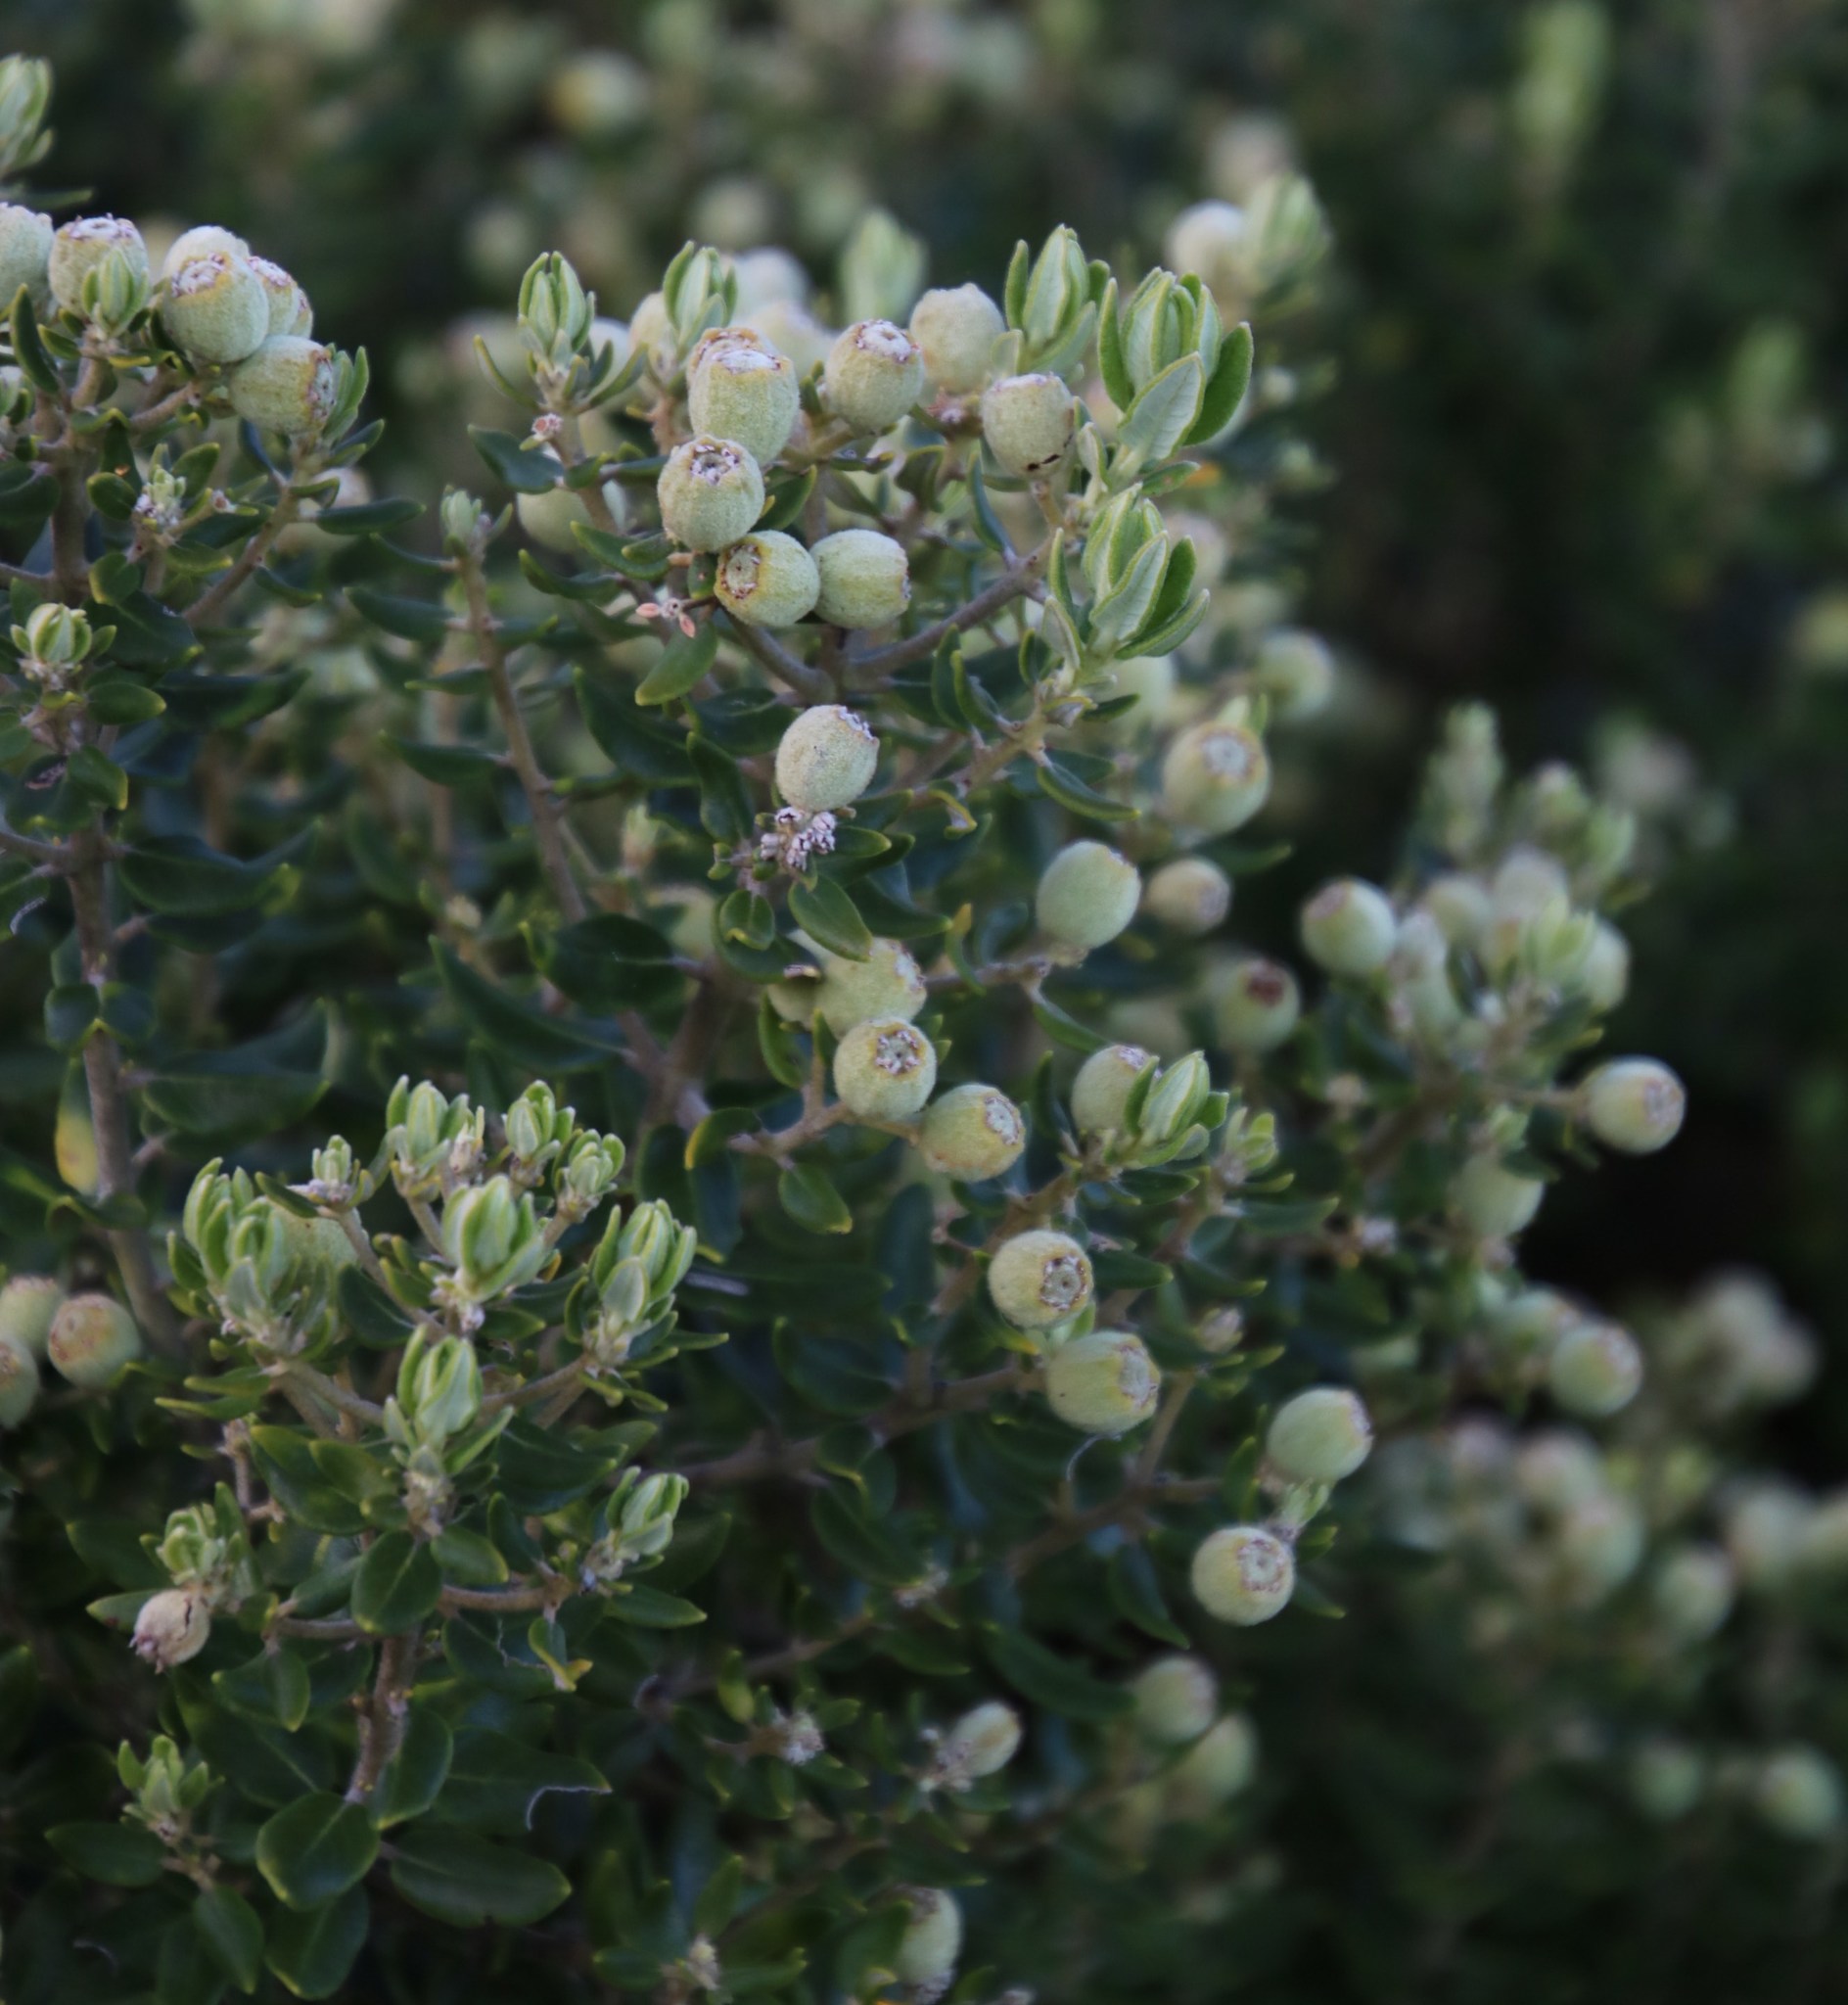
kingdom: Plantae
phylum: Tracheophyta
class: Magnoliopsida
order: Rosales
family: Rhamnaceae
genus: Phylica
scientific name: Phylica buxifolia
